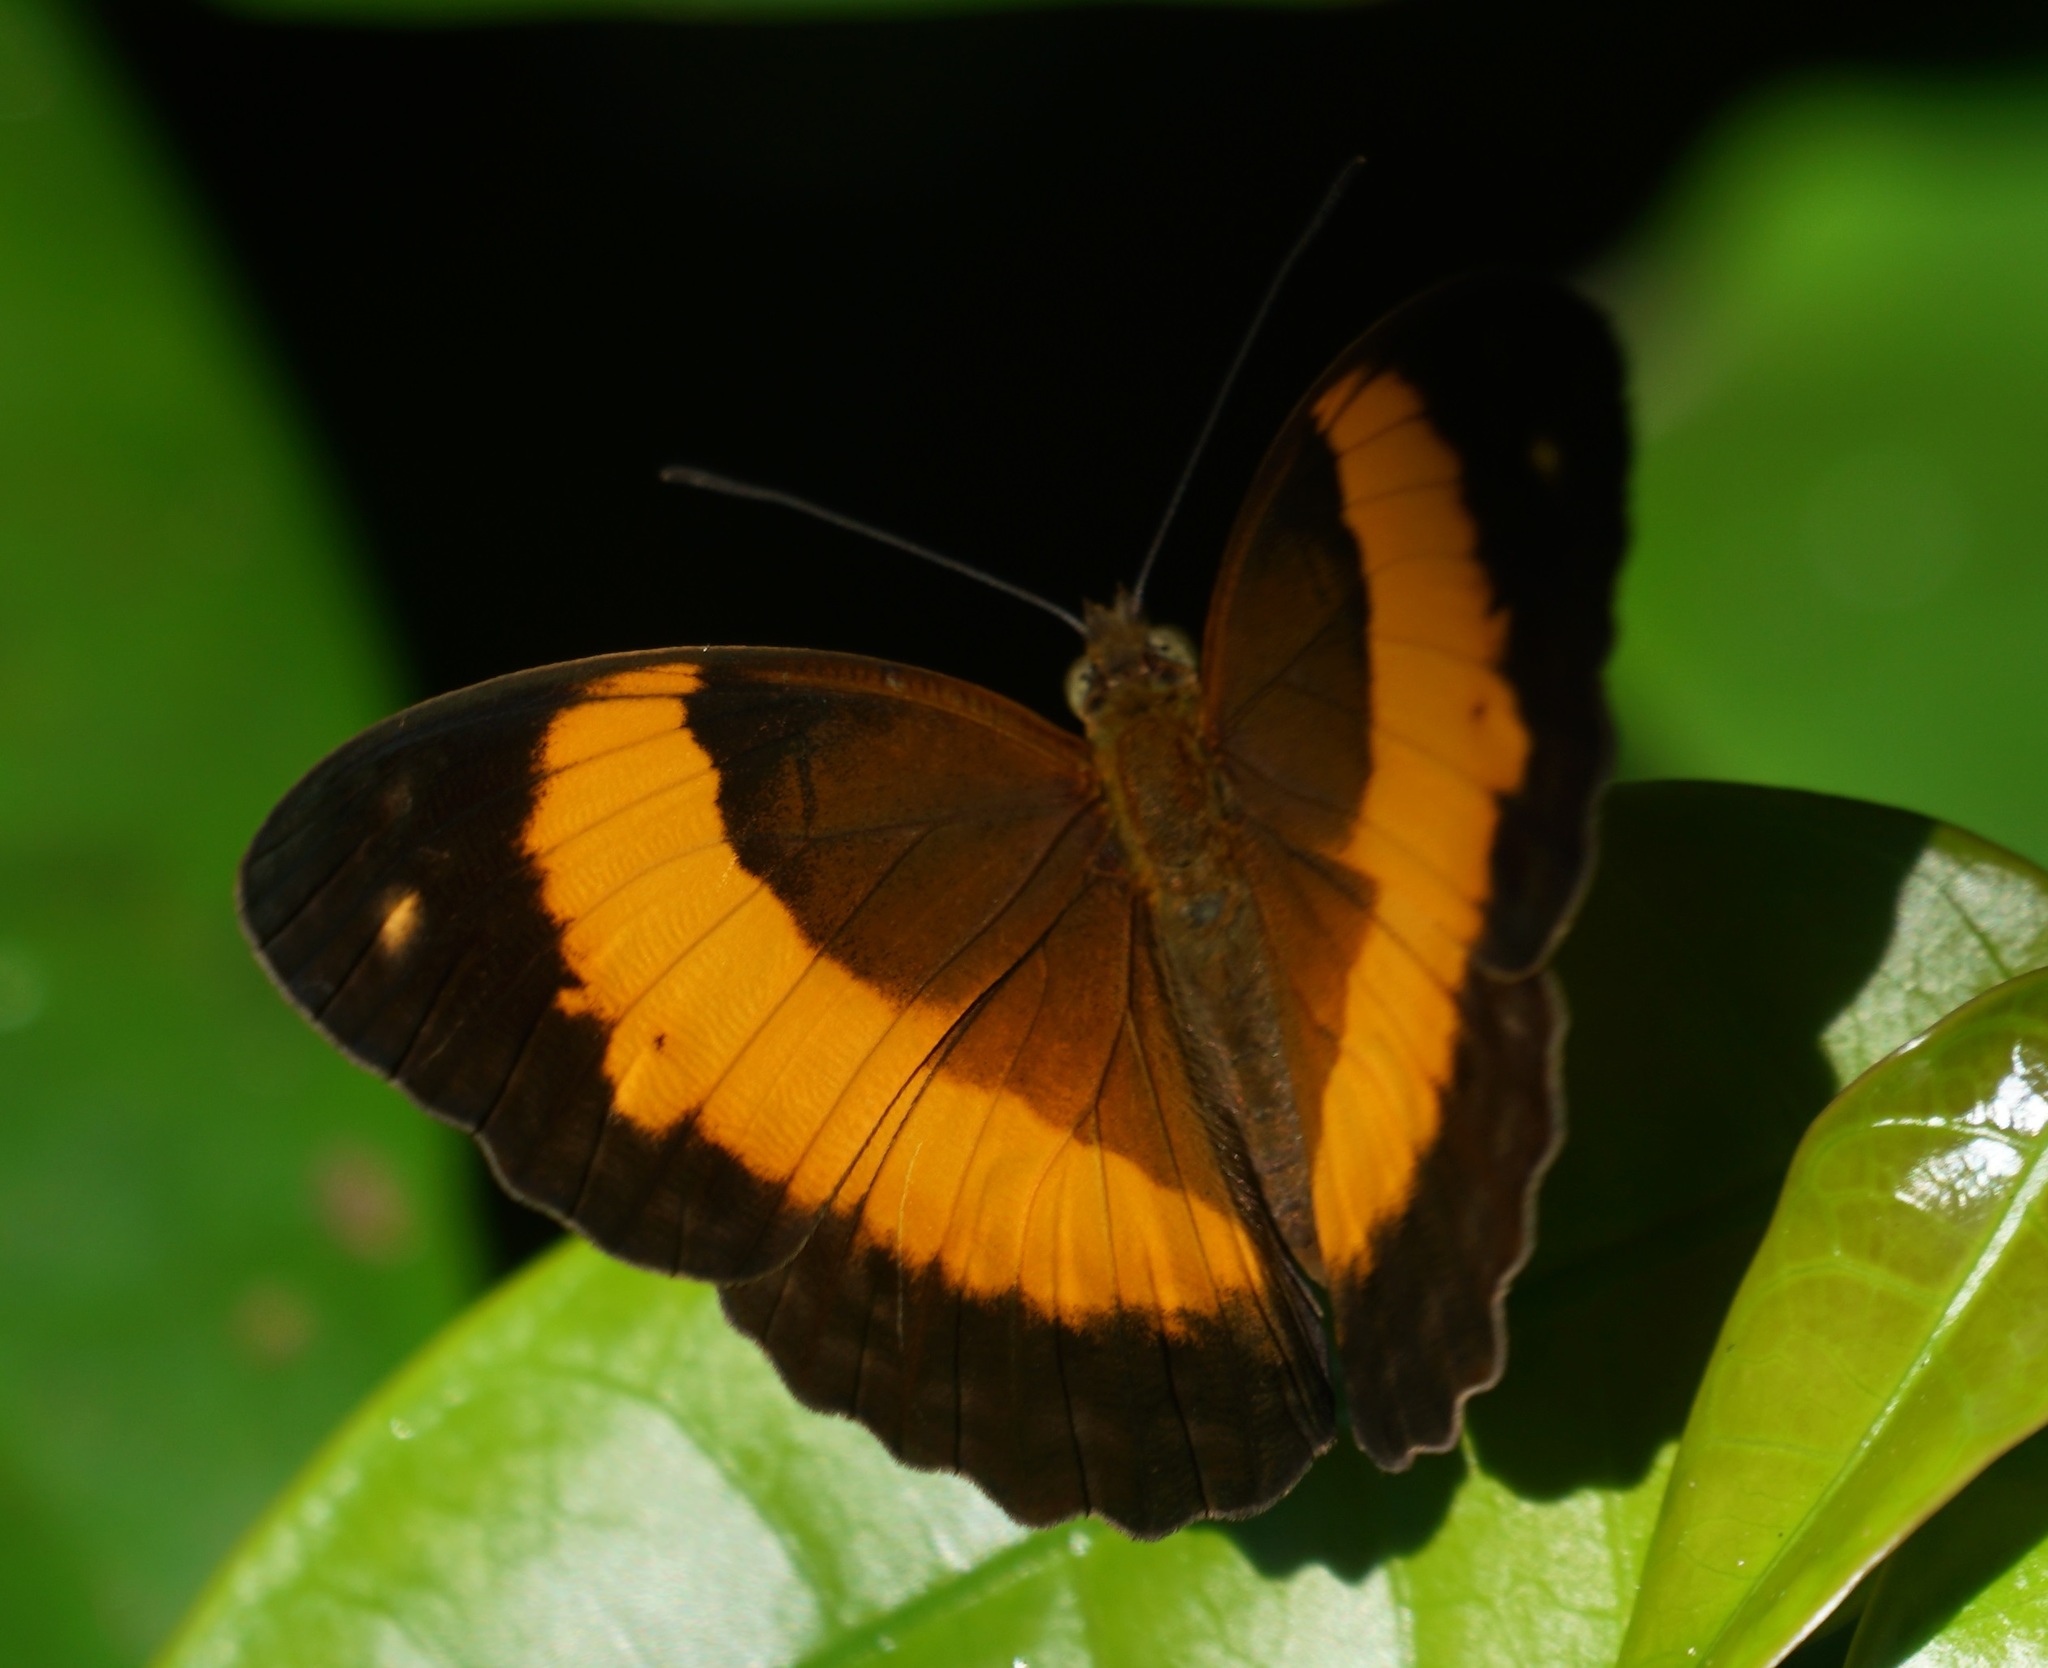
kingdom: Animalia
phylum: Arthropoda
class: Insecta
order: Lepidoptera
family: Nymphalidae
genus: Cupha
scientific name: Cupha prosope
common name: Bordered rustic
